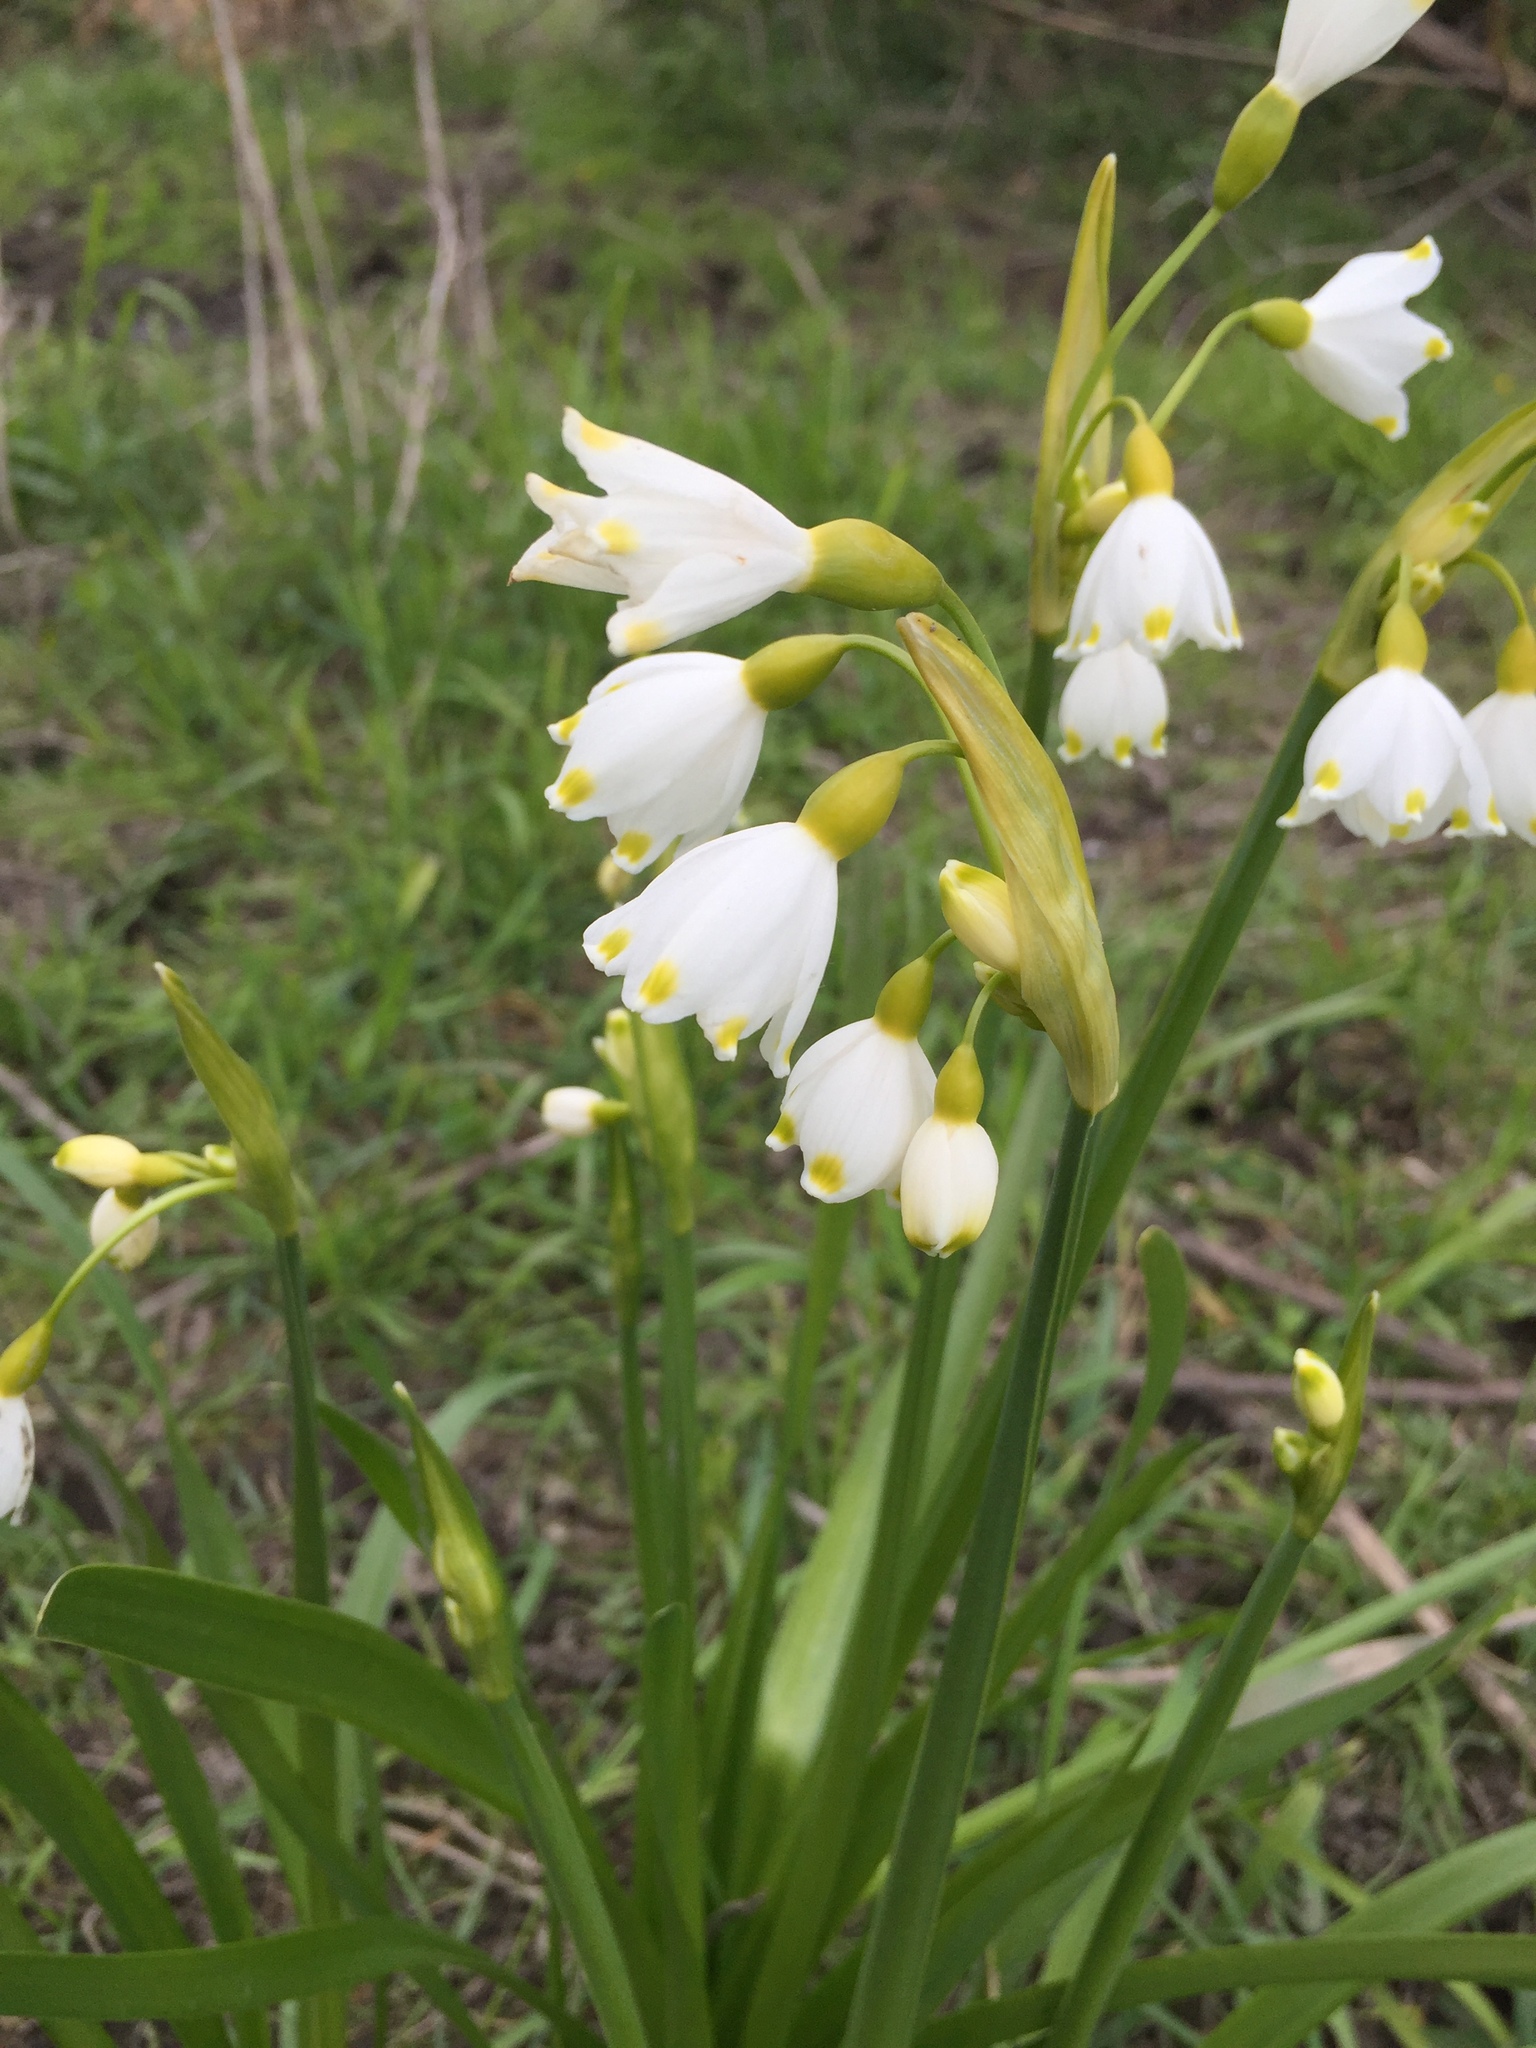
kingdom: Plantae
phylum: Tracheophyta
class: Liliopsida
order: Asparagales
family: Amaryllidaceae
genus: Leucojum
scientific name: Leucojum aestivum
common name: Summer snowflake
